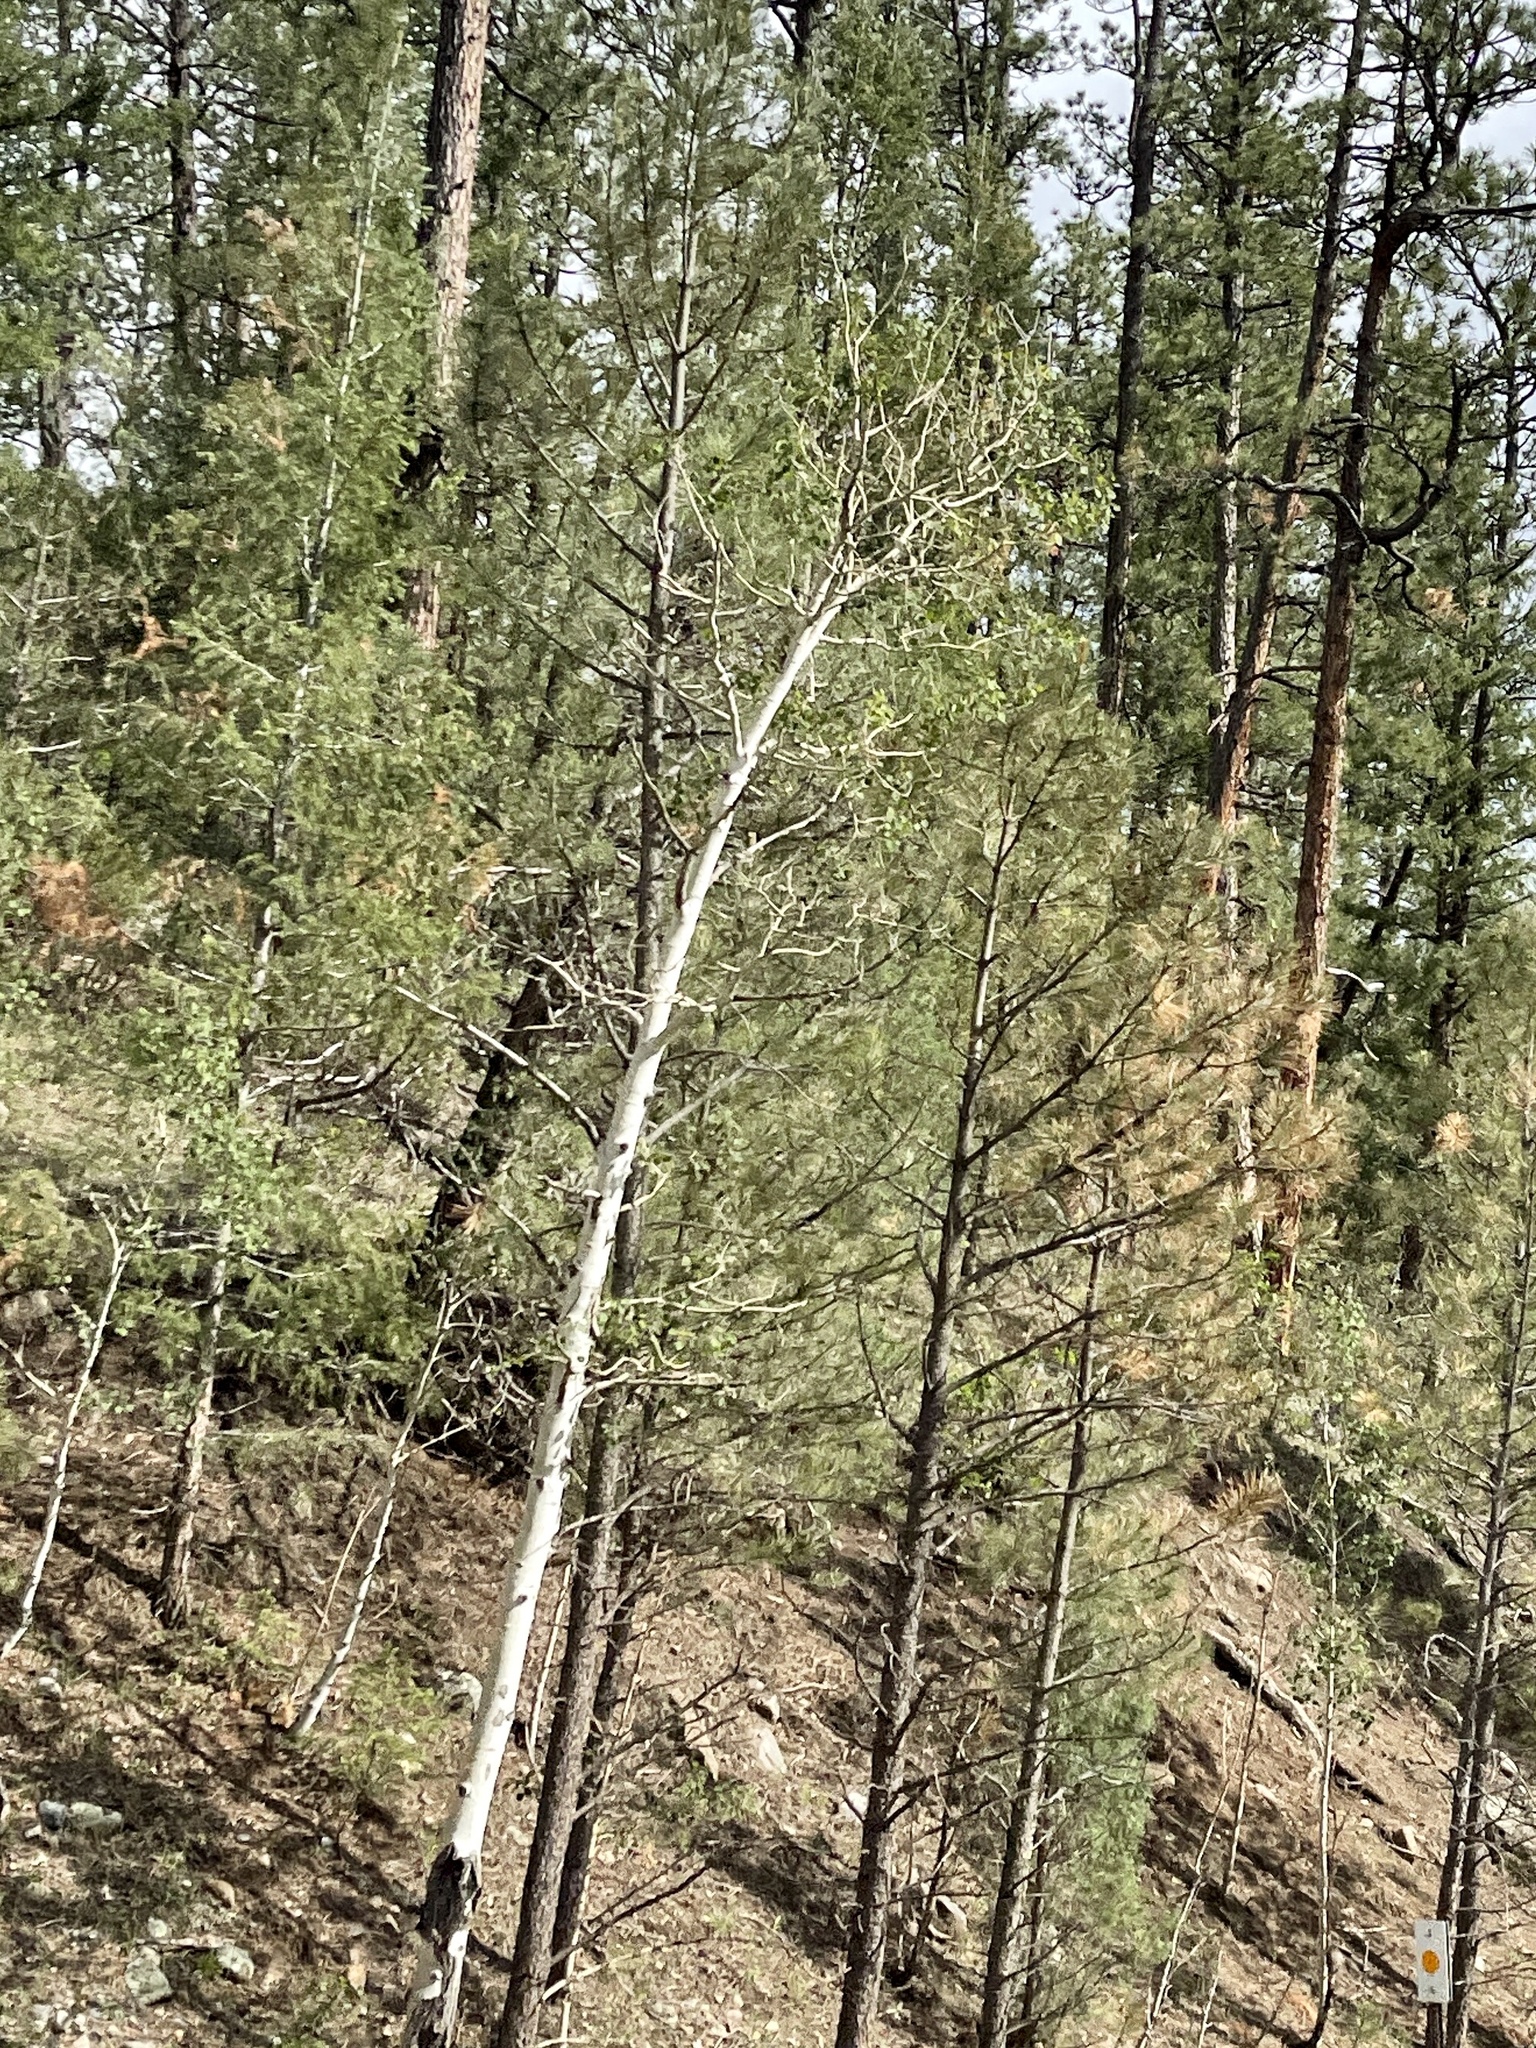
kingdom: Plantae
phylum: Tracheophyta
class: Magnoliopsida
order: Malpighiales
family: Salicaceae
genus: Populus
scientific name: Populus tremuloides
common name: Quaking aspen
